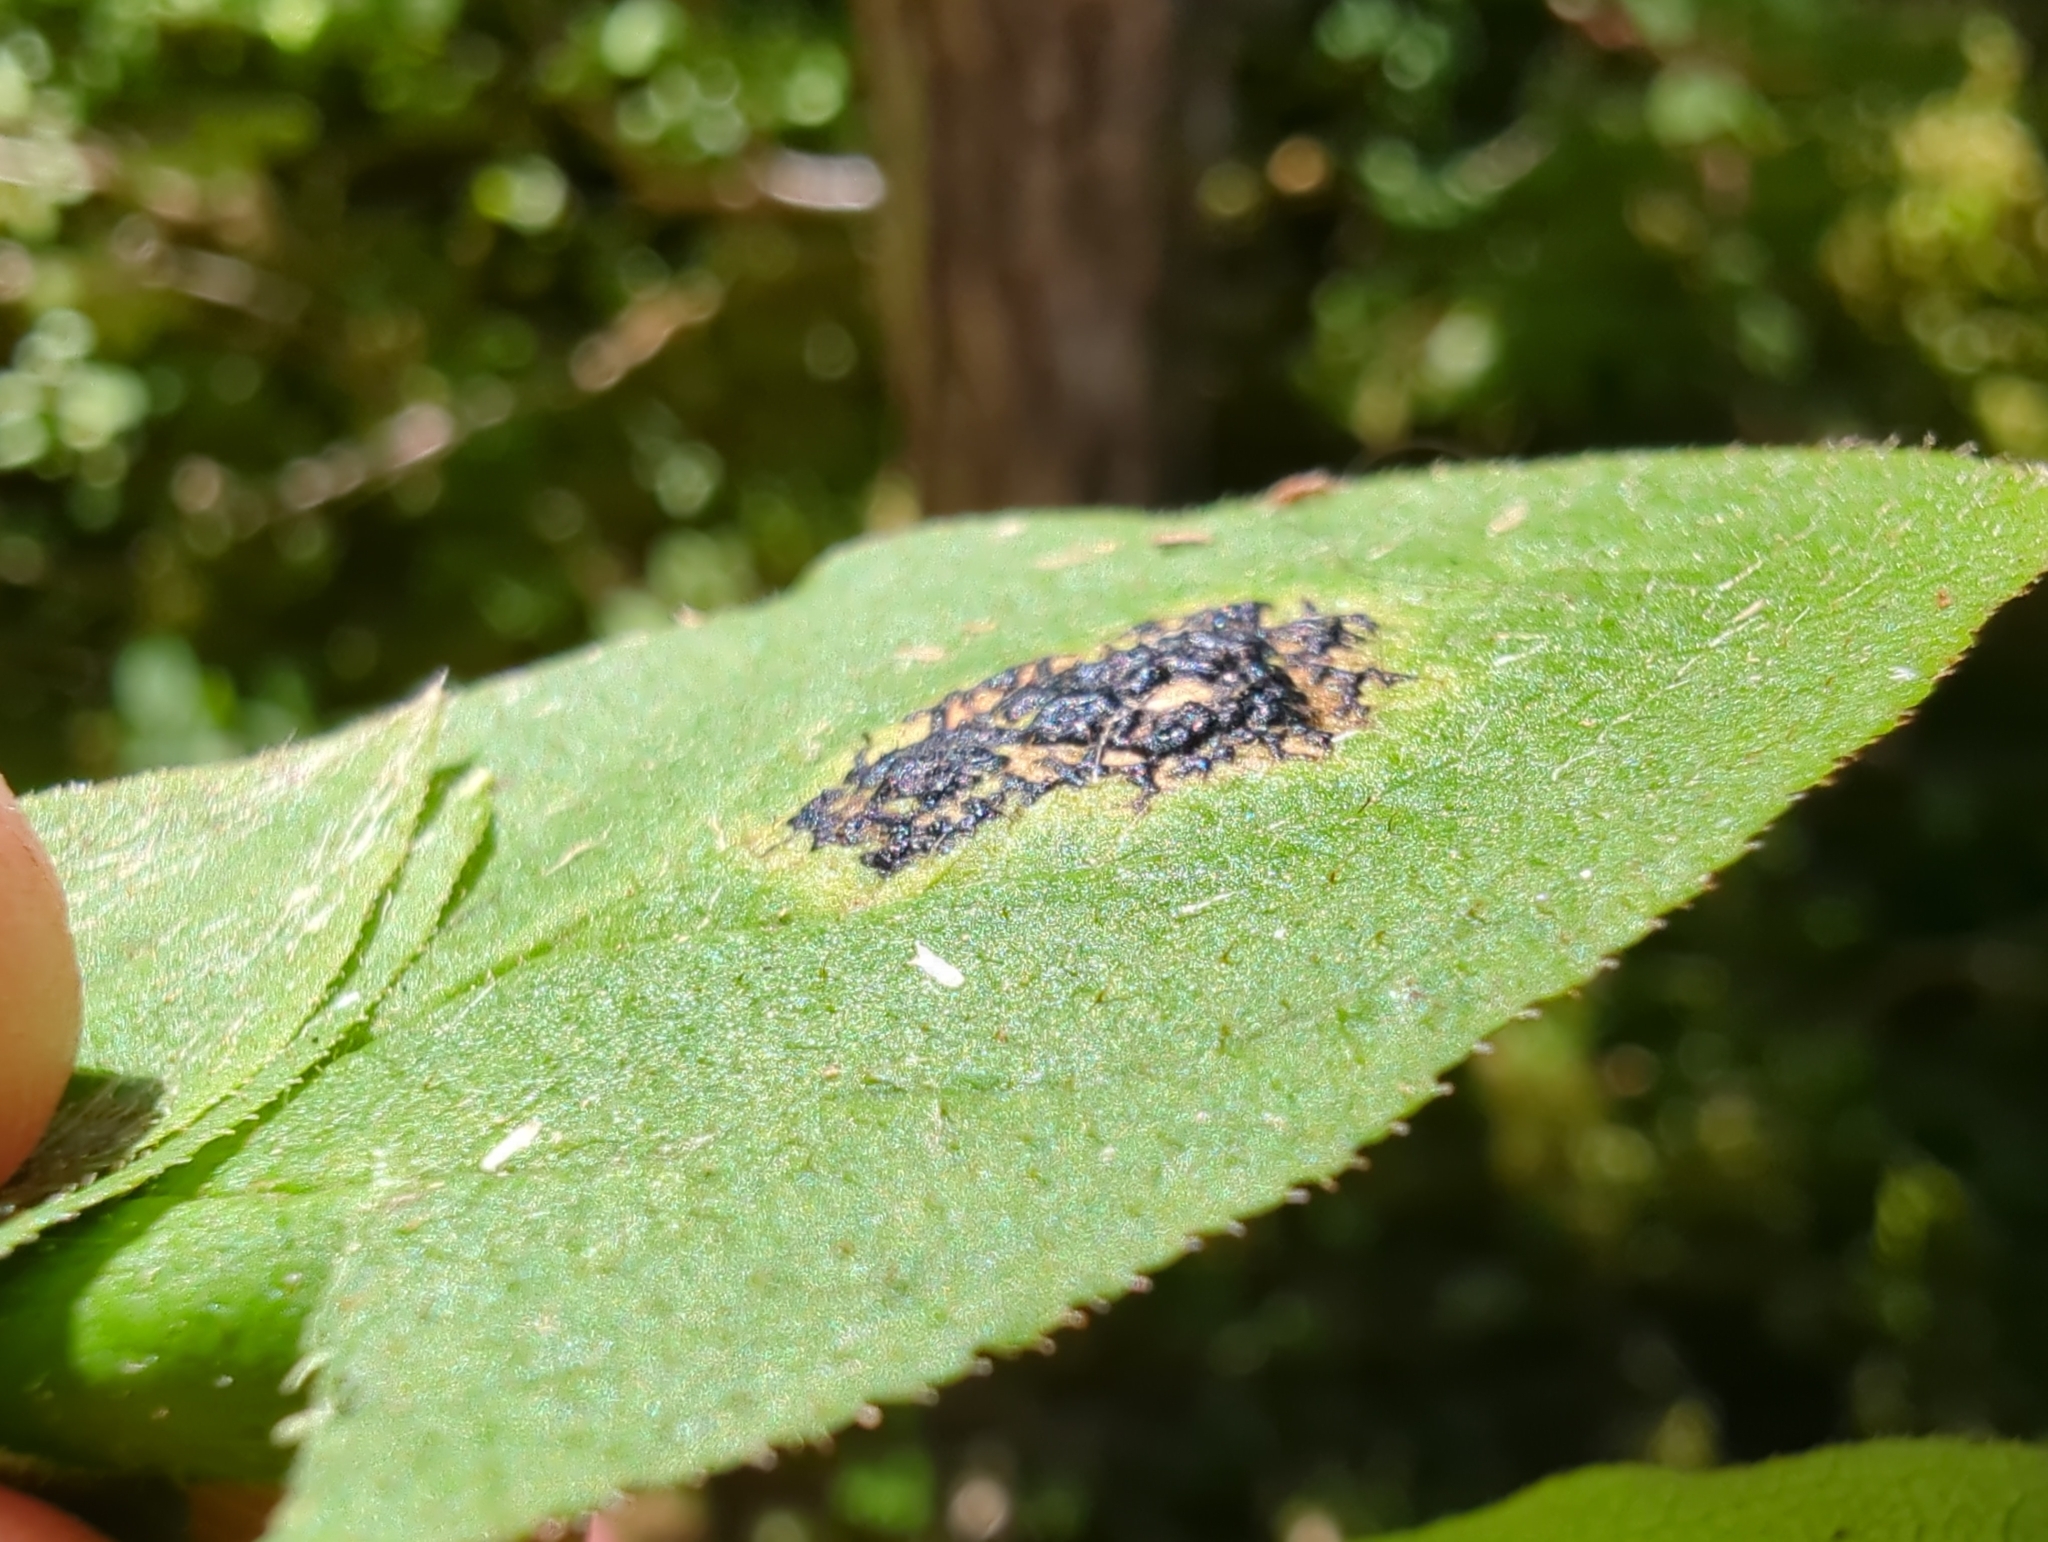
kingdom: Fungi
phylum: Ascomycota
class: Leotiomycetes
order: Rhytismatales
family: Rhytismataceae
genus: Rhytisma
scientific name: Rhytisma
